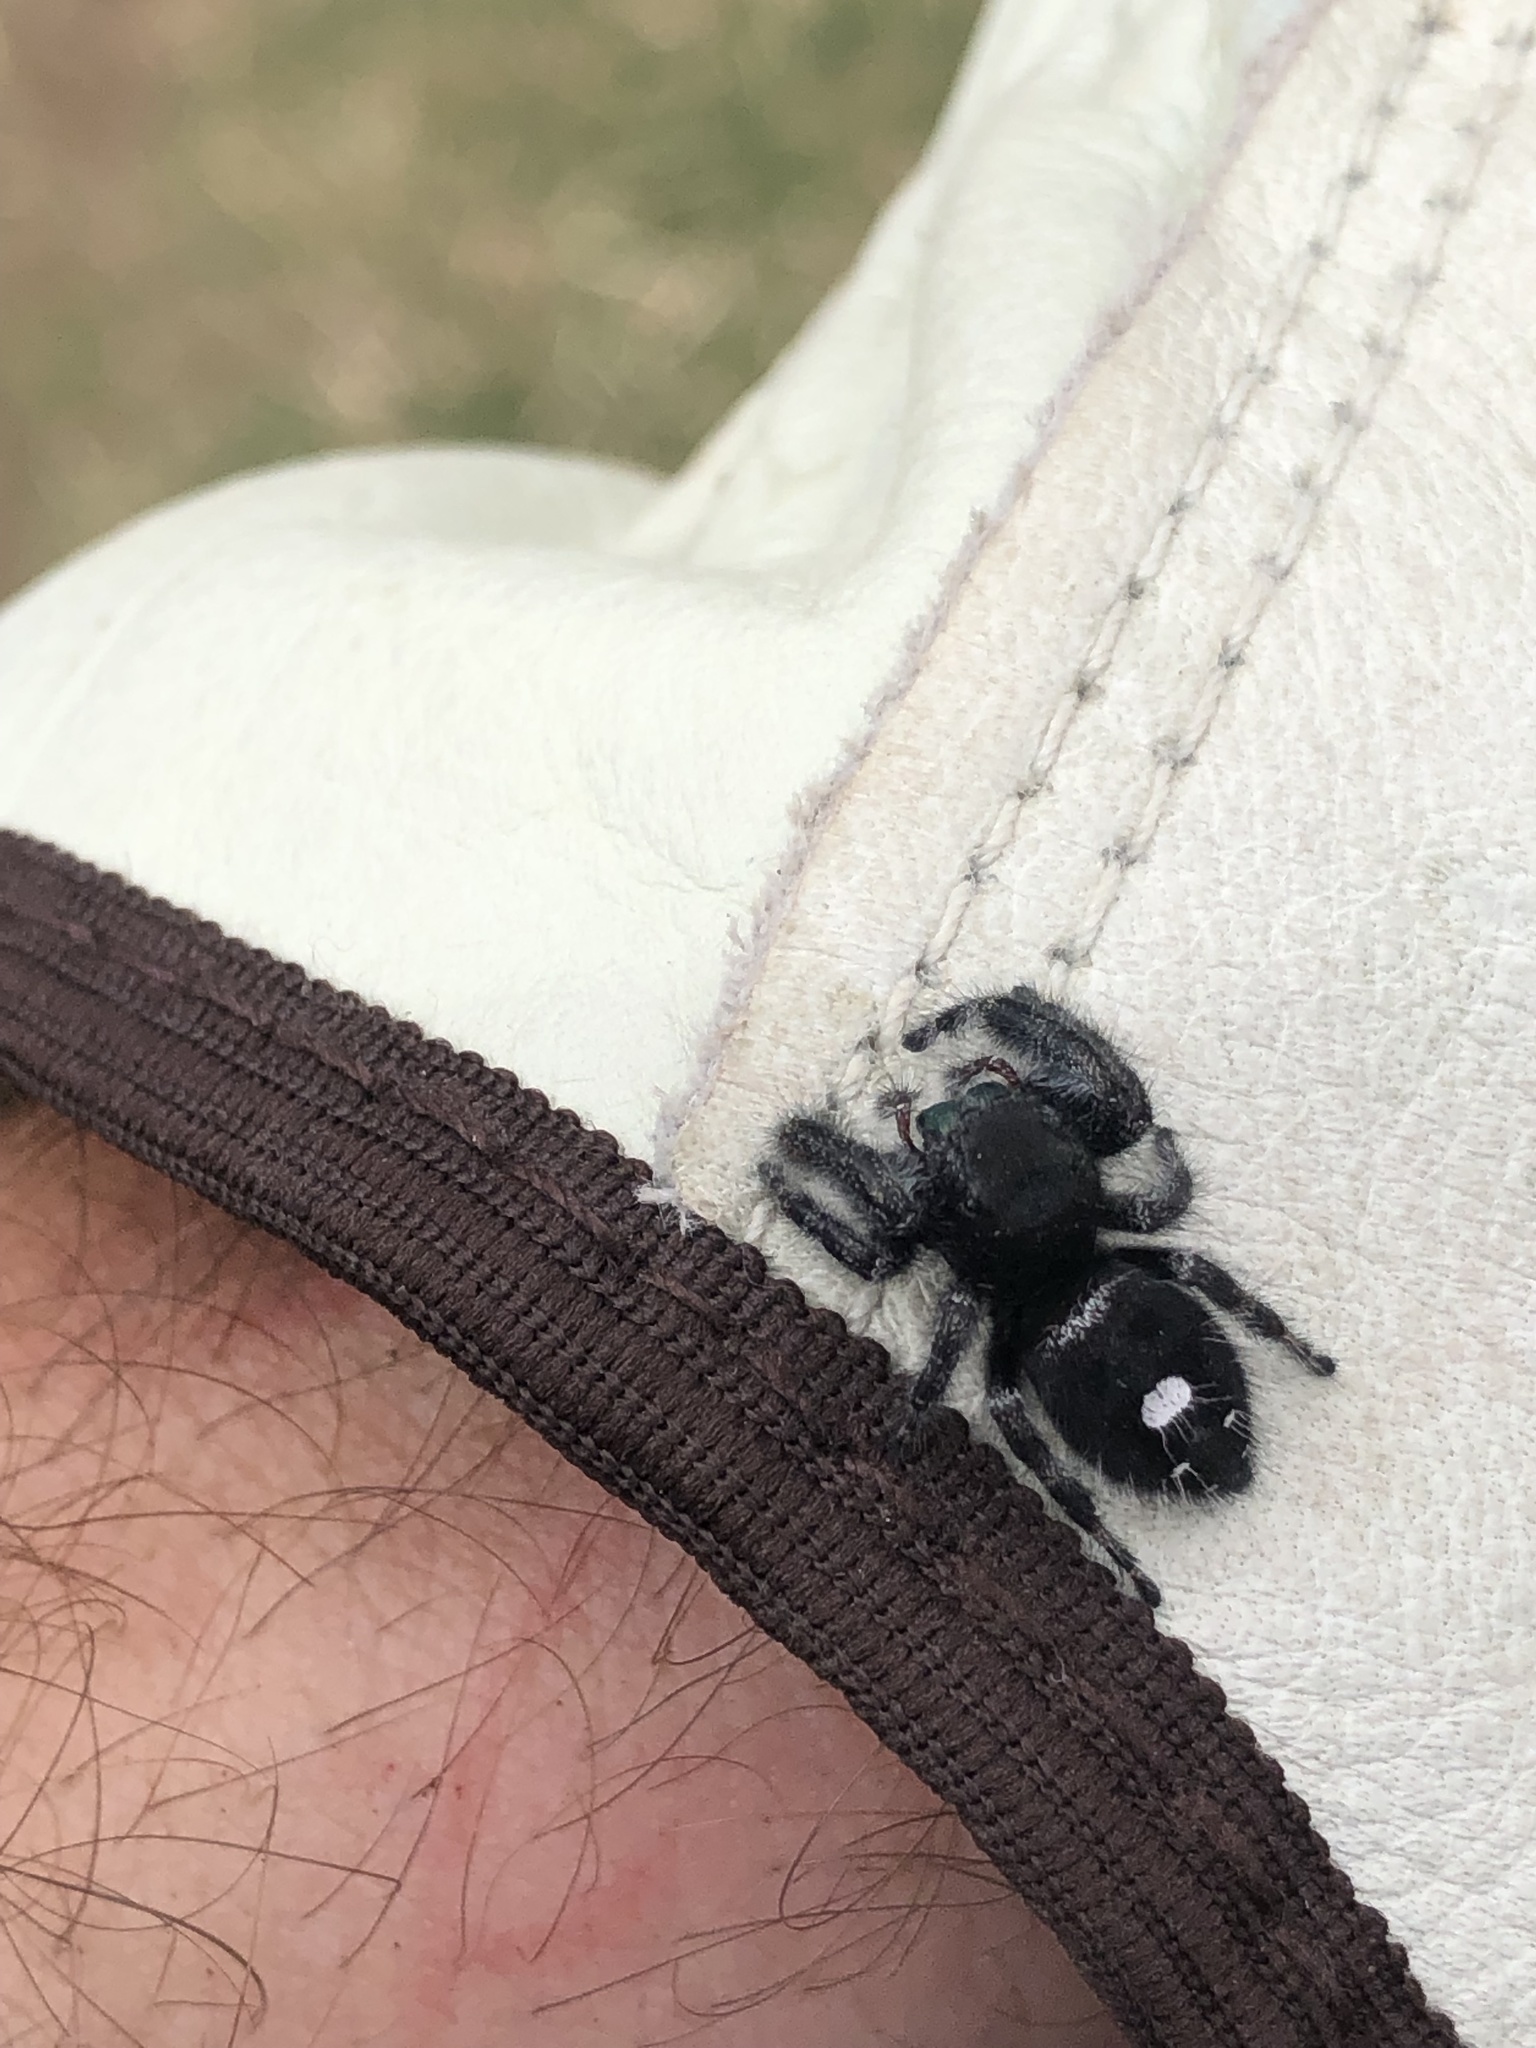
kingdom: Animalia
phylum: Arthropoda
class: Arachnida
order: Araneae
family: Salticidae
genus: Phidippus
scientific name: Phidippus audax
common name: Bold jumper
